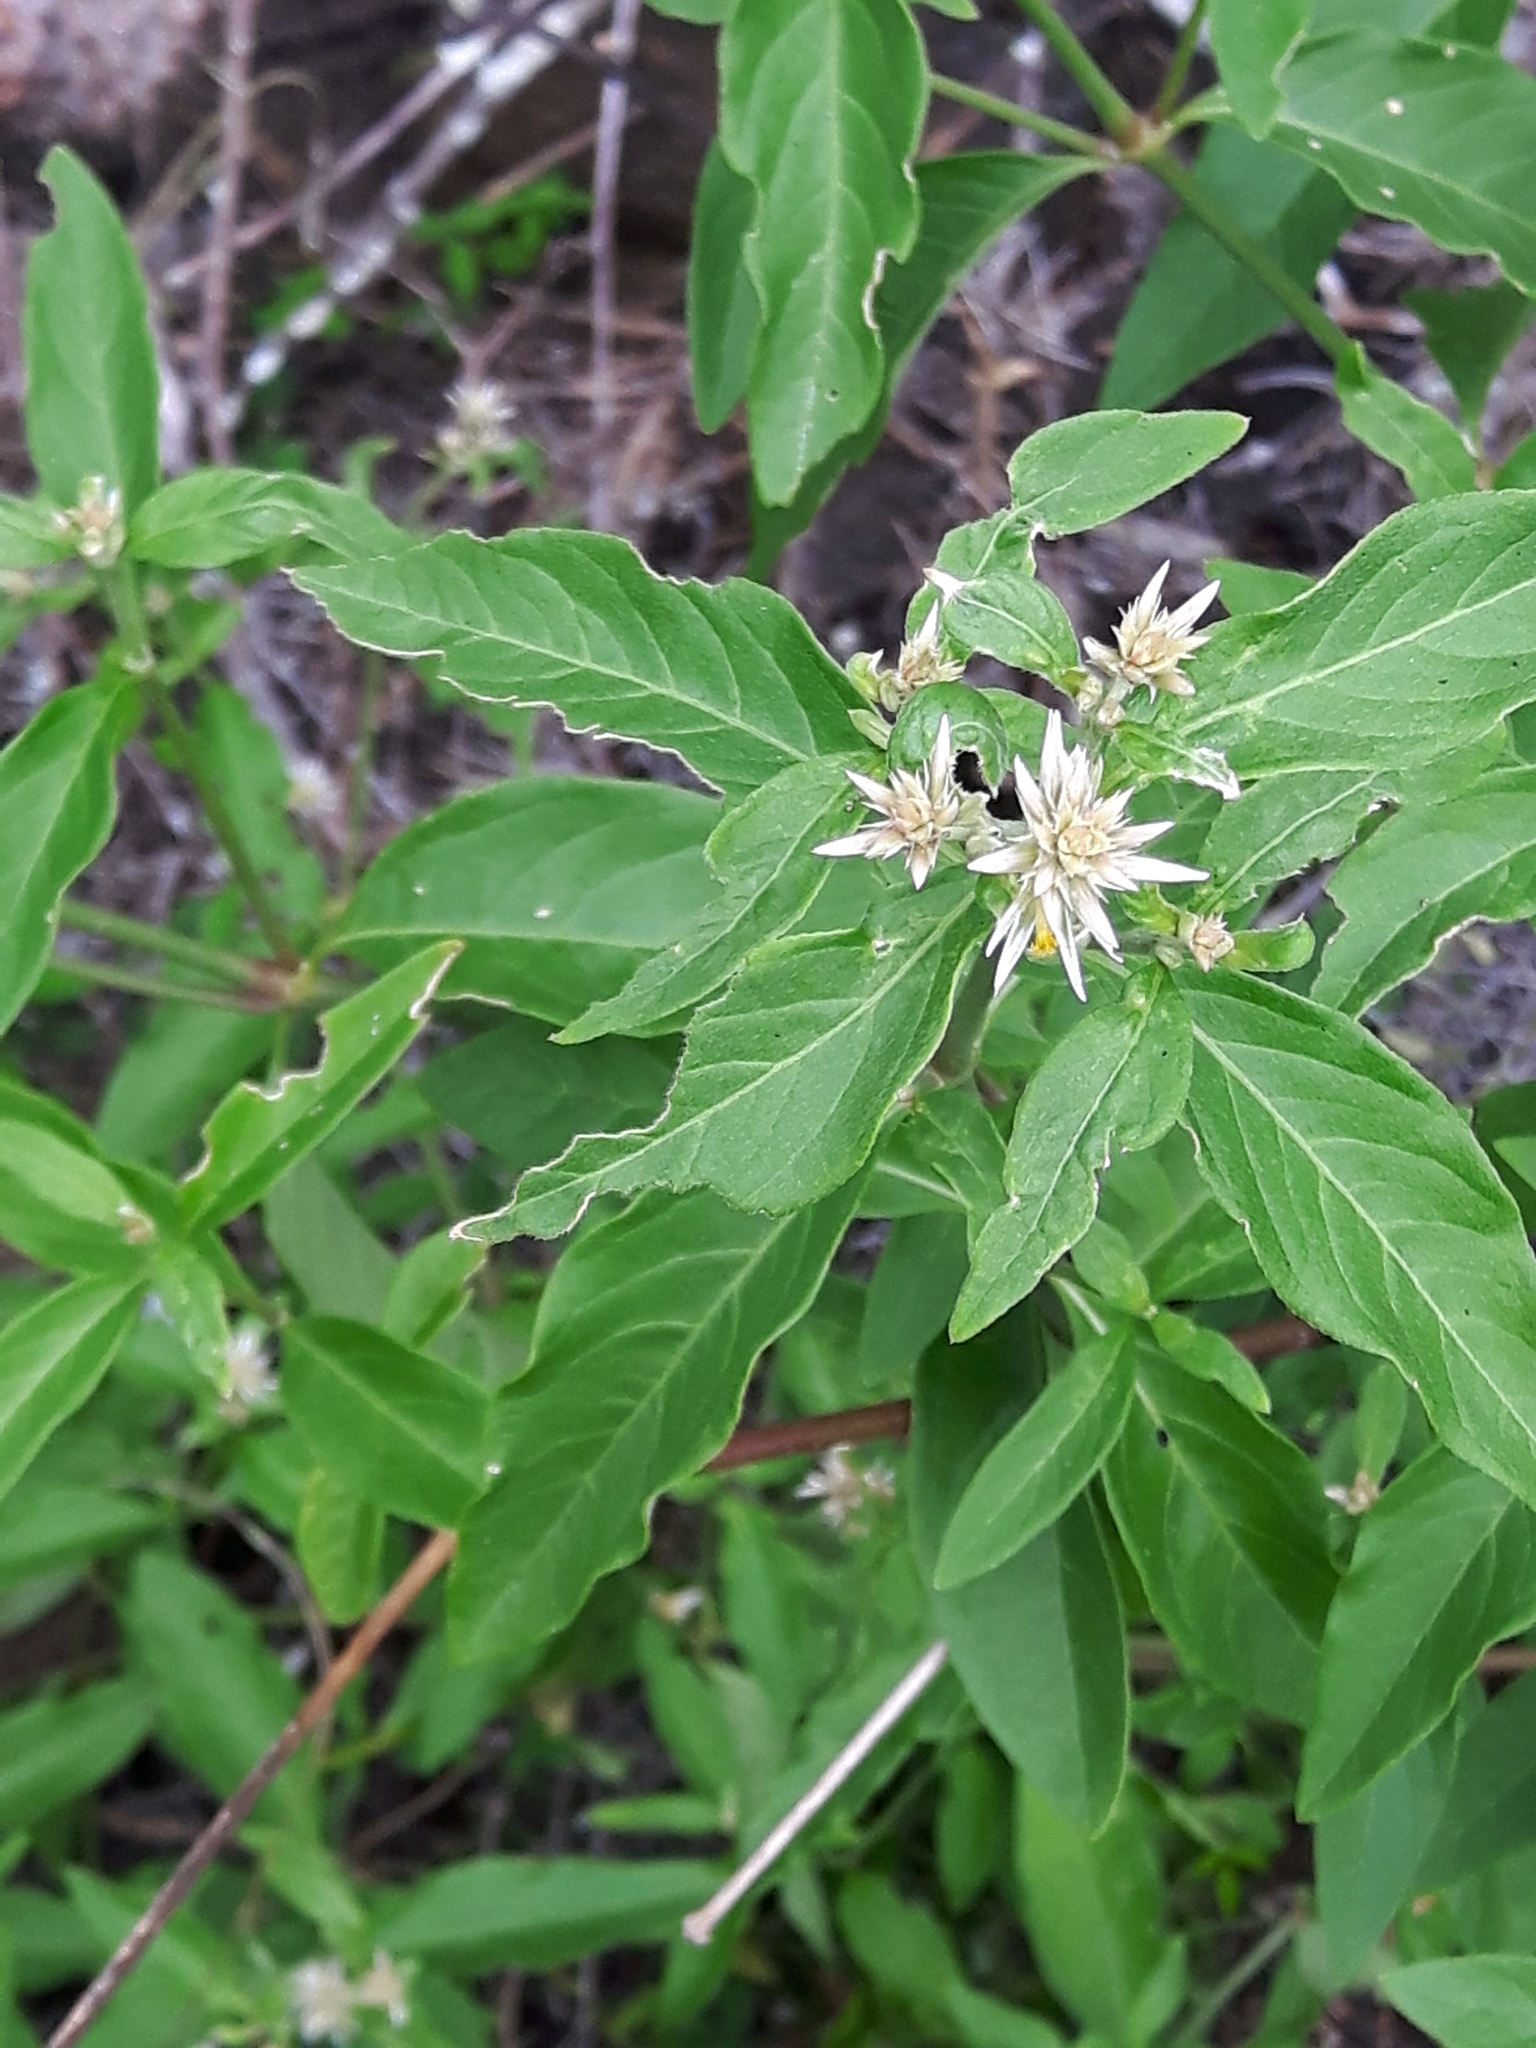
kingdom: Plantae
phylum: Tracheophyta
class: Magnoliopsida
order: Caryophyllales
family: Amaranthaceae
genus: Alternanthera
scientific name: Alternanthera echinocephala
